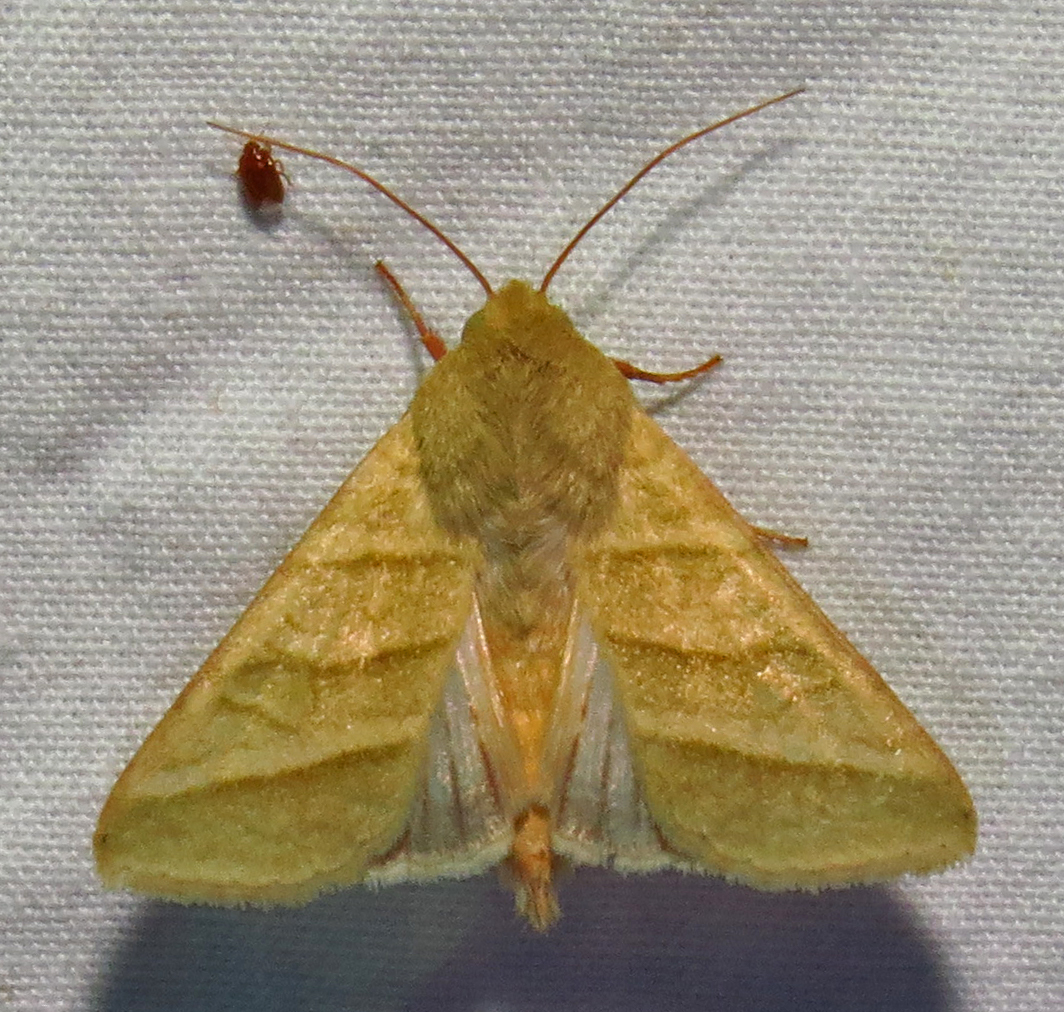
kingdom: Animalia
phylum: Arthropoda
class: Insecta
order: Lepidoptera
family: Noctuidae
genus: Chloridea
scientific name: Chloridea virescens
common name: Tobacco budworm
